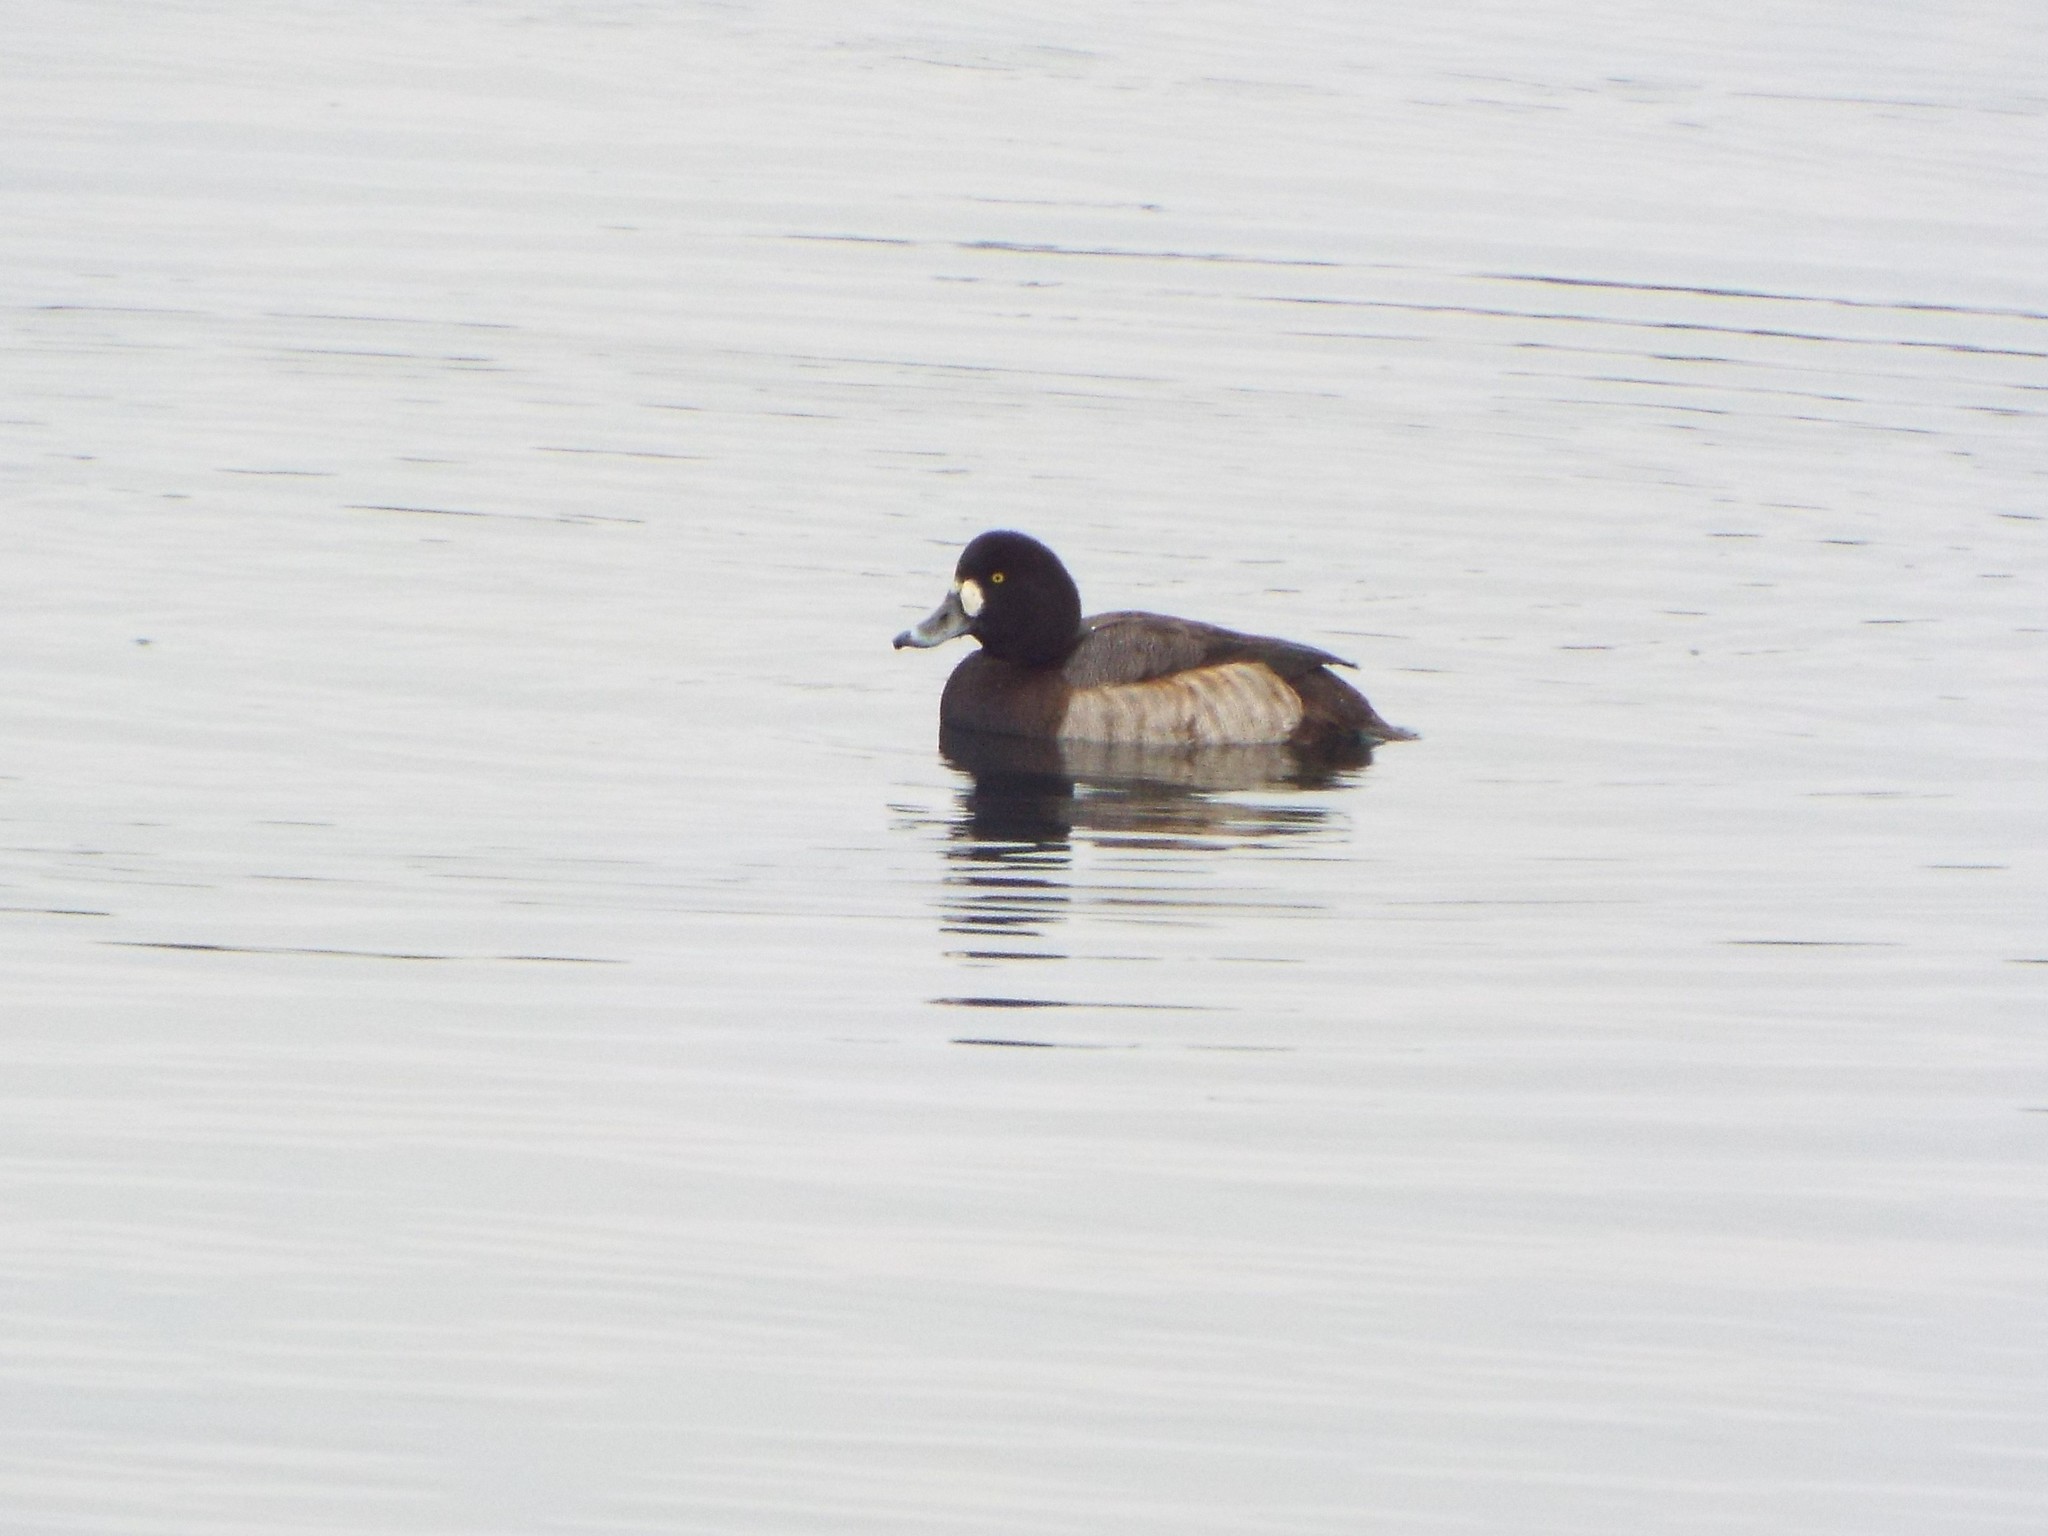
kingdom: Animalia
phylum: Chordata
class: Aves
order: Anseriformes
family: Anatidae
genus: Aythya
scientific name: Aythya marila
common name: Greater scaup
